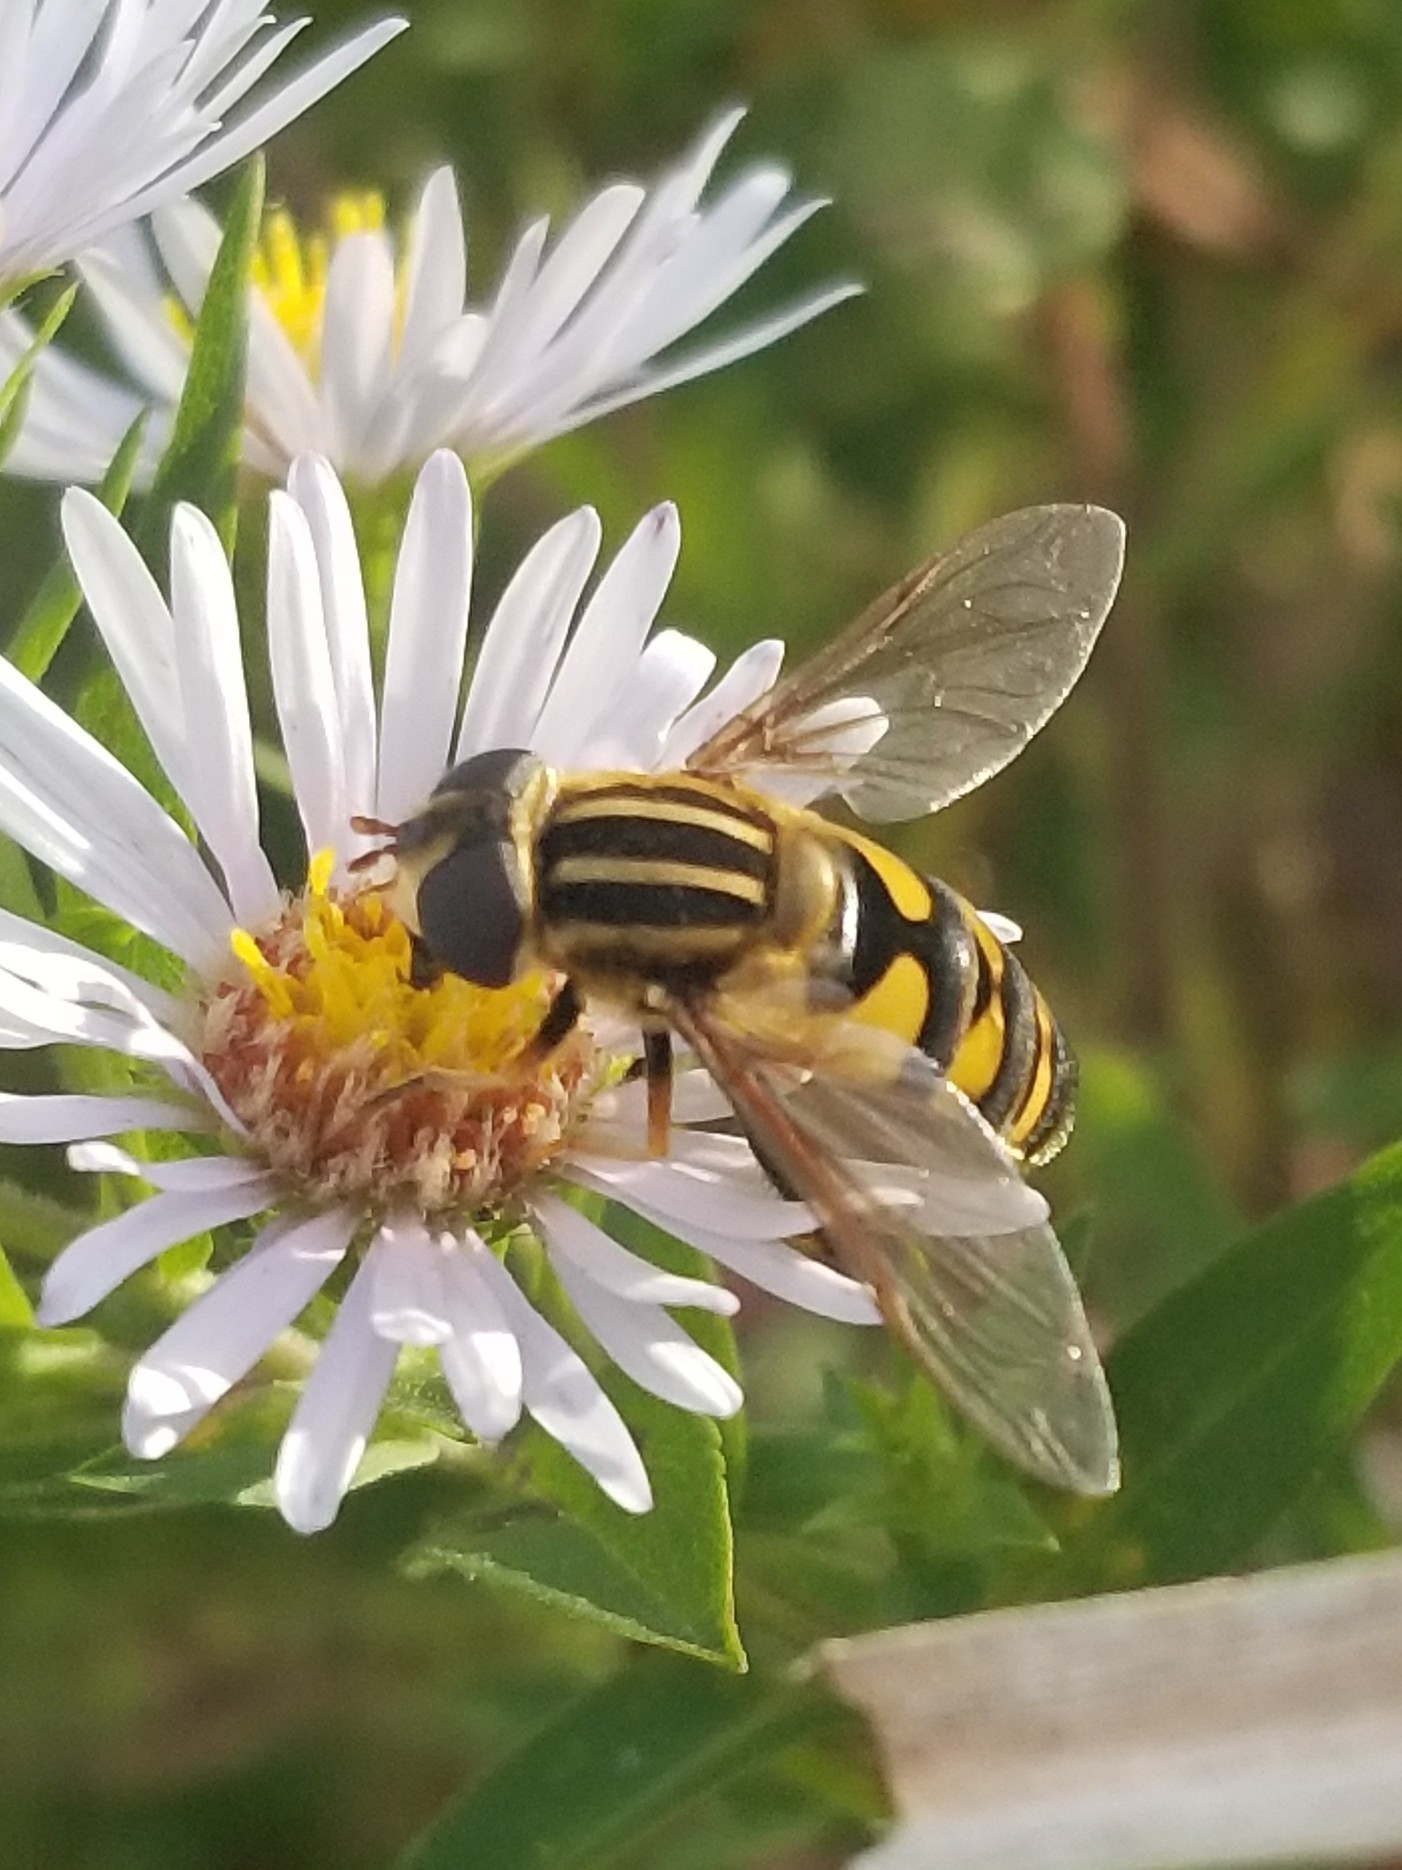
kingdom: Animalia
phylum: Arthropoda
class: Insecta
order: Diptera
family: Syrphidae
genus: Helophilus
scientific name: Helophilus fasciatus
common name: Narrow-headed marsh fly
